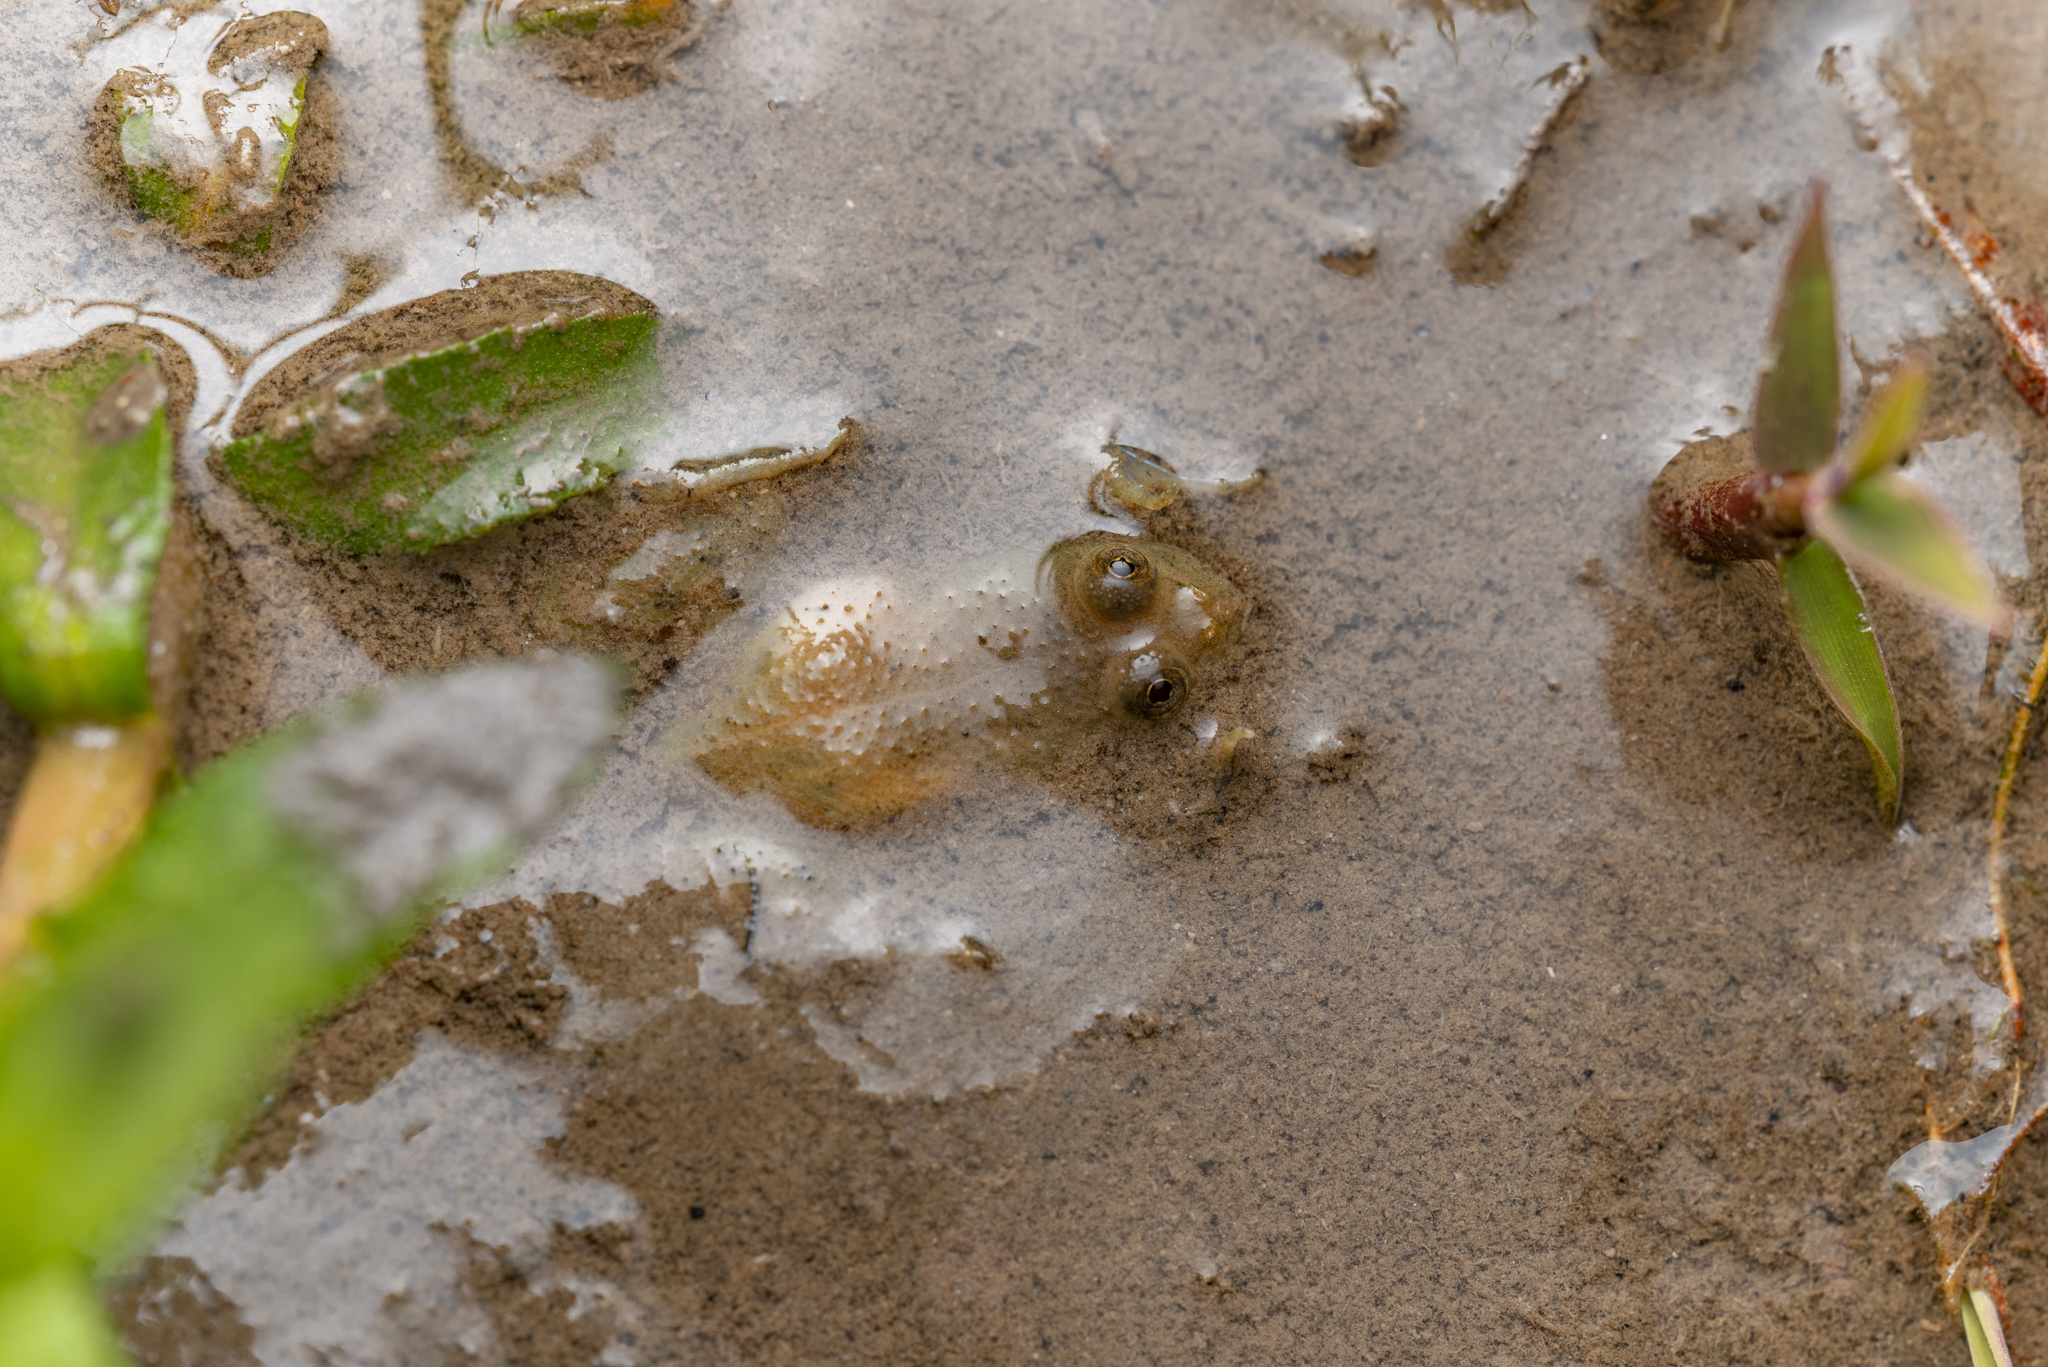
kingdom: Animalia
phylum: Chordata
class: Amphibia
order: Anura
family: Dicroglossidae
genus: Occidozyga
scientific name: Occidozyga lima
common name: Rough-skinned puddle frog/yellow-bellied puddle frog/green puddle frog/pointed-tongued floating frog
